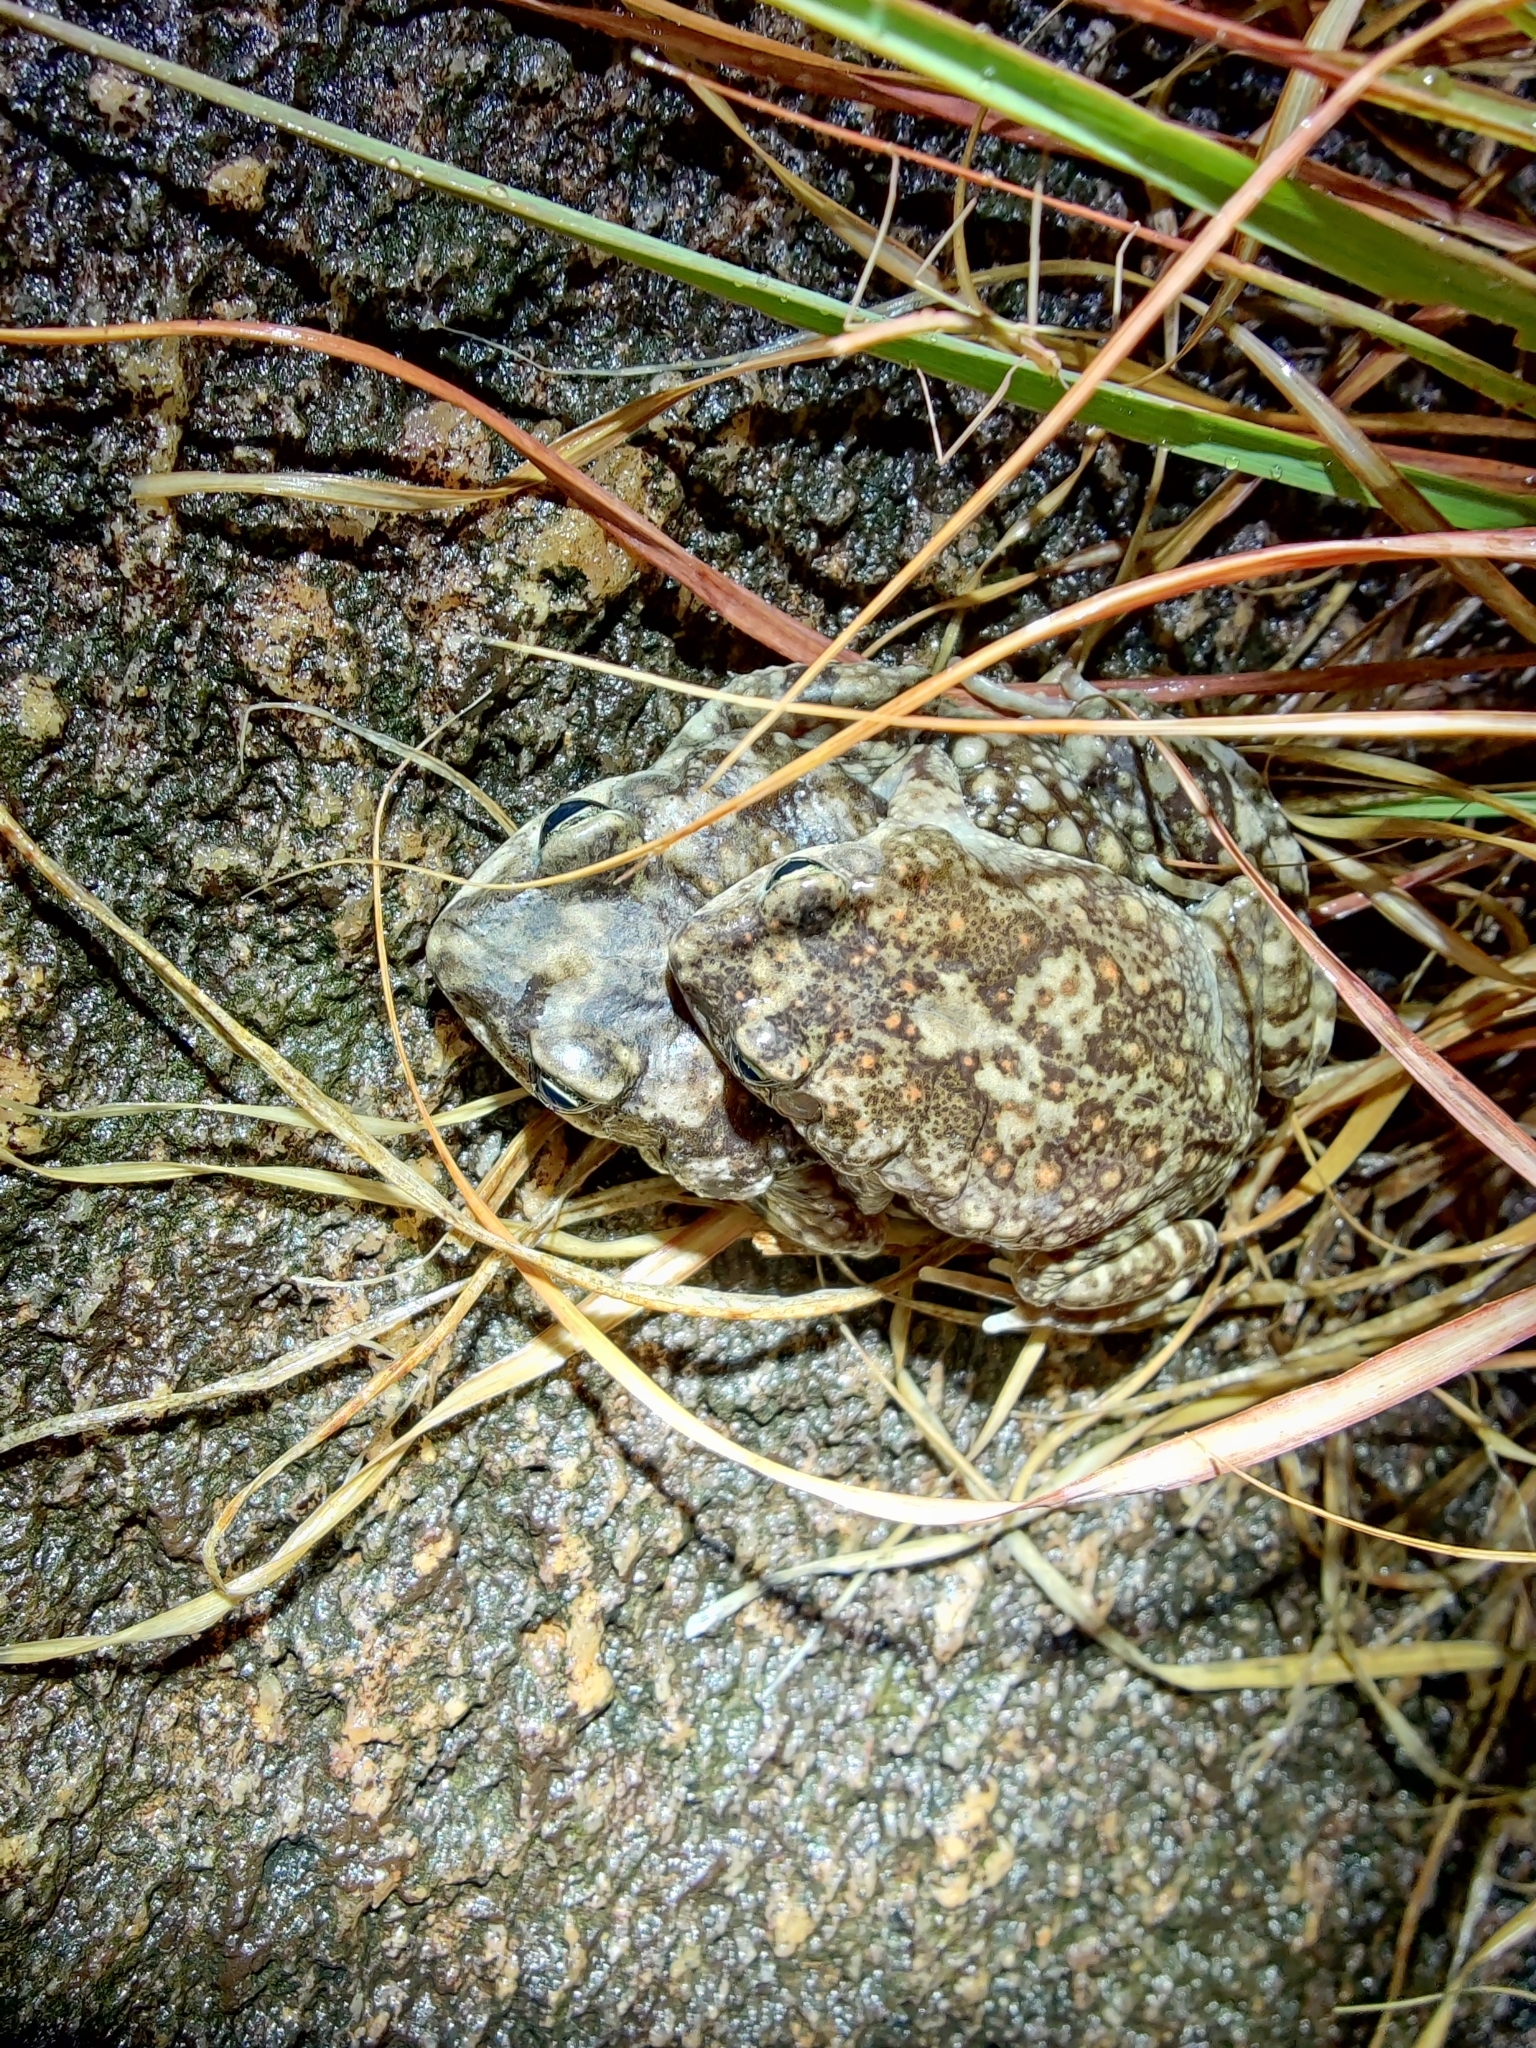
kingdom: Animalia
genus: Firouzophrynus
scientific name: Firouzophrynus
